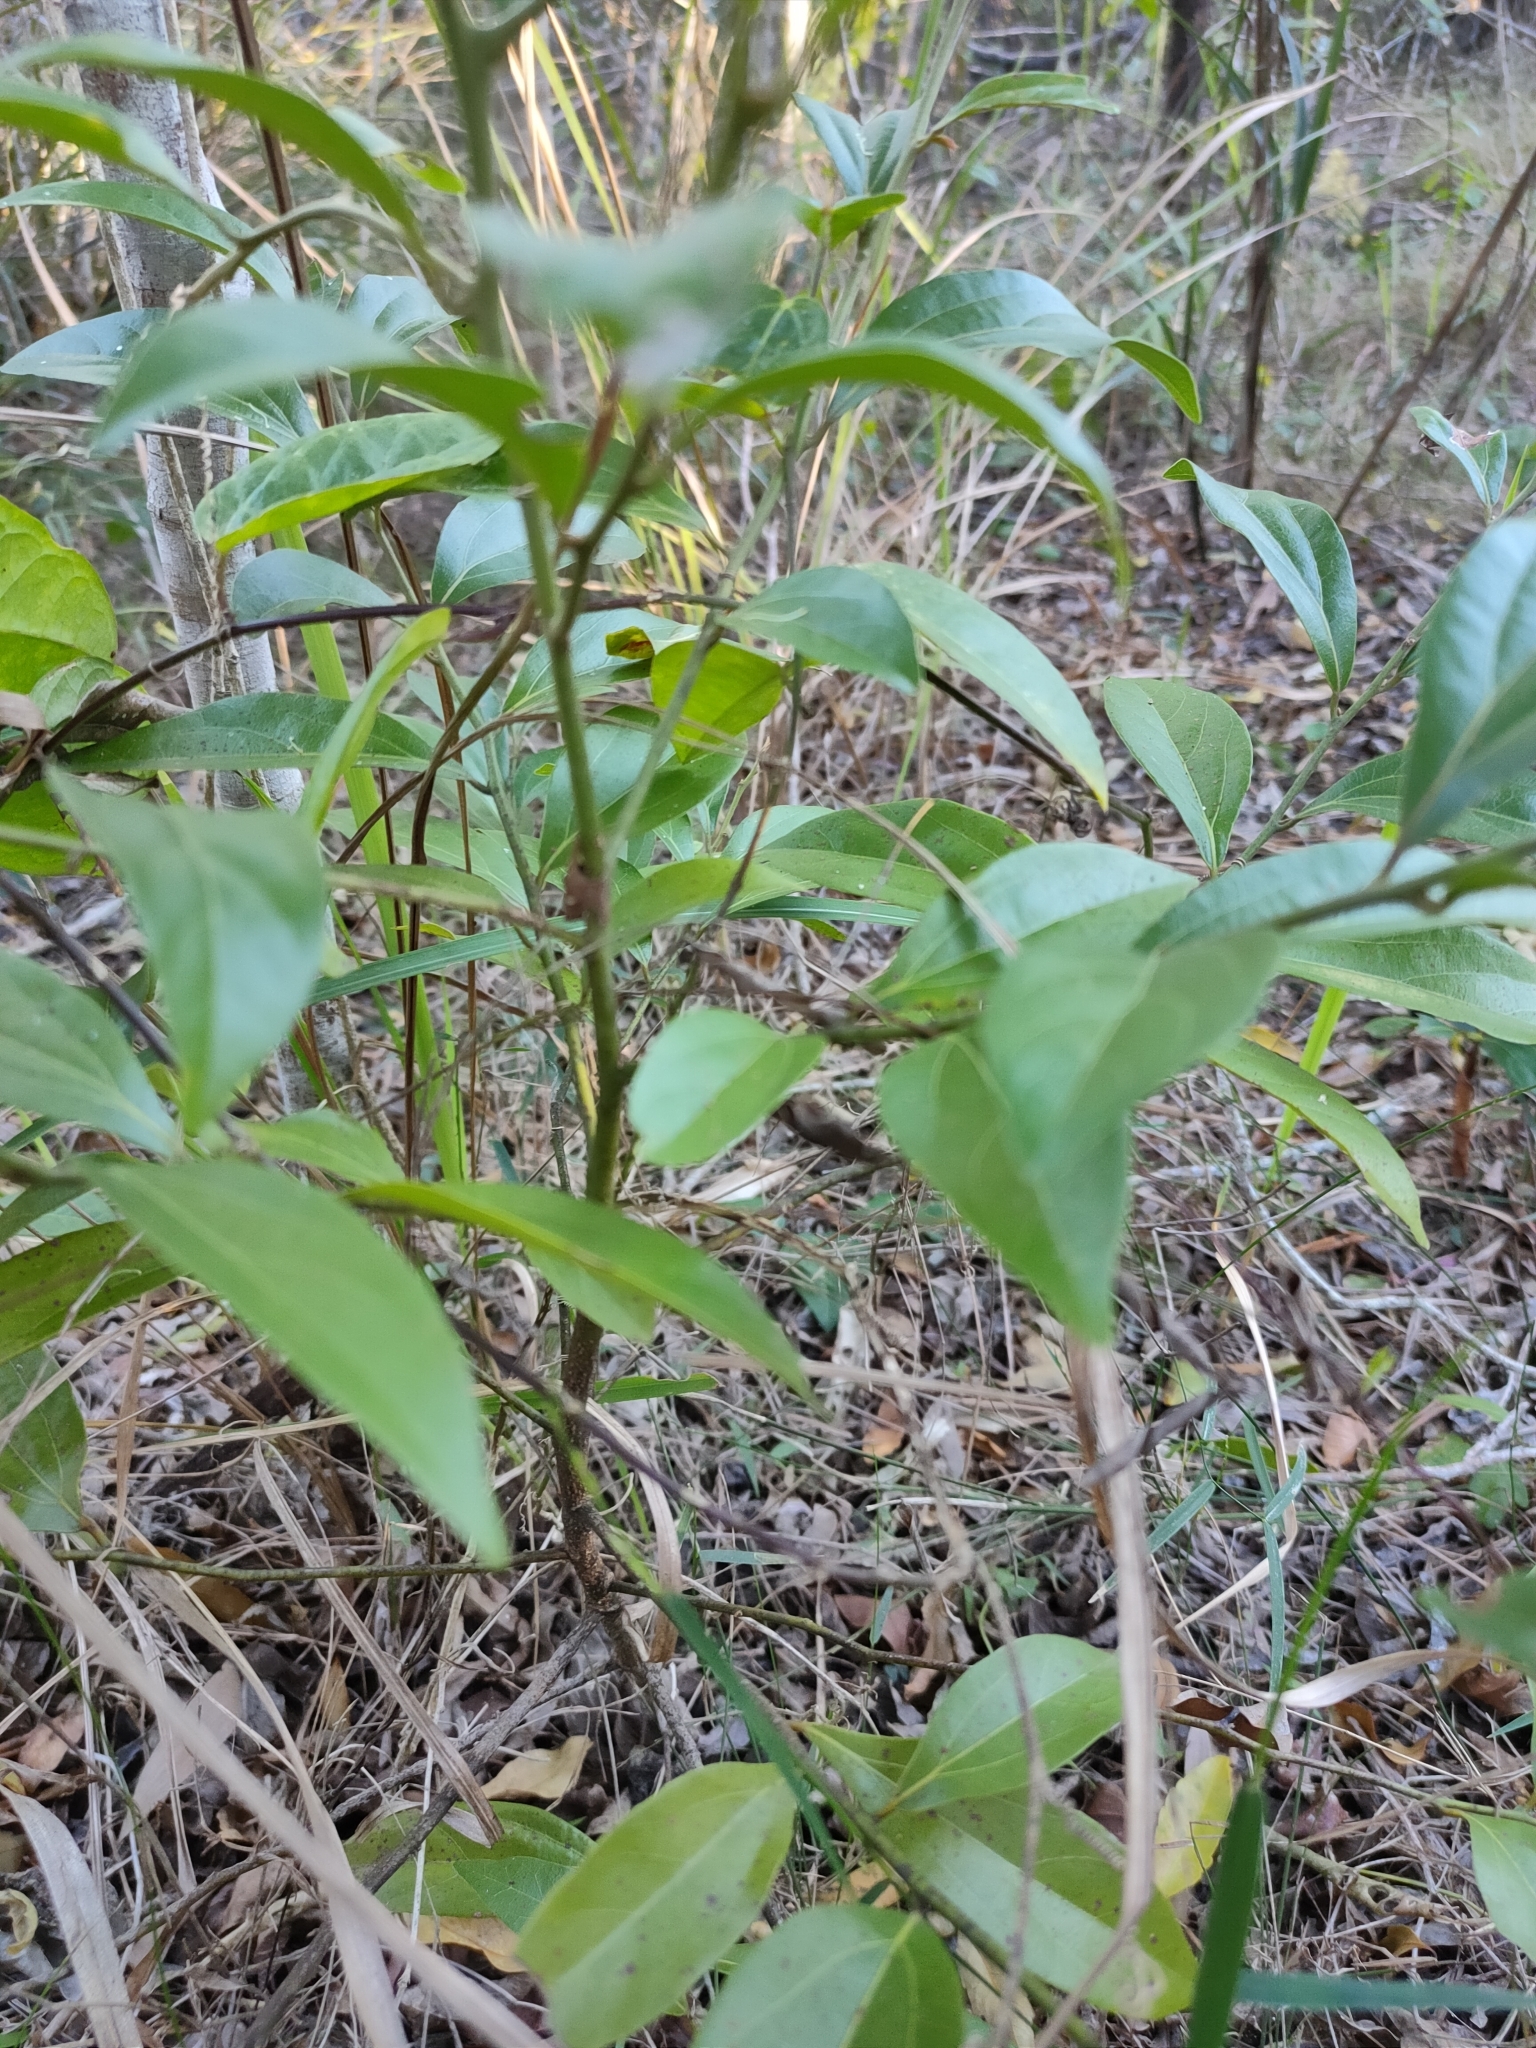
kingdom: Plantae
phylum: Tracheophyta
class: Magnoliopsida
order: Laurales
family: Lauraceae
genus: Cryptocarya
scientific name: Cryptocarya triplinervis
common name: Three-vein cryptocarya
